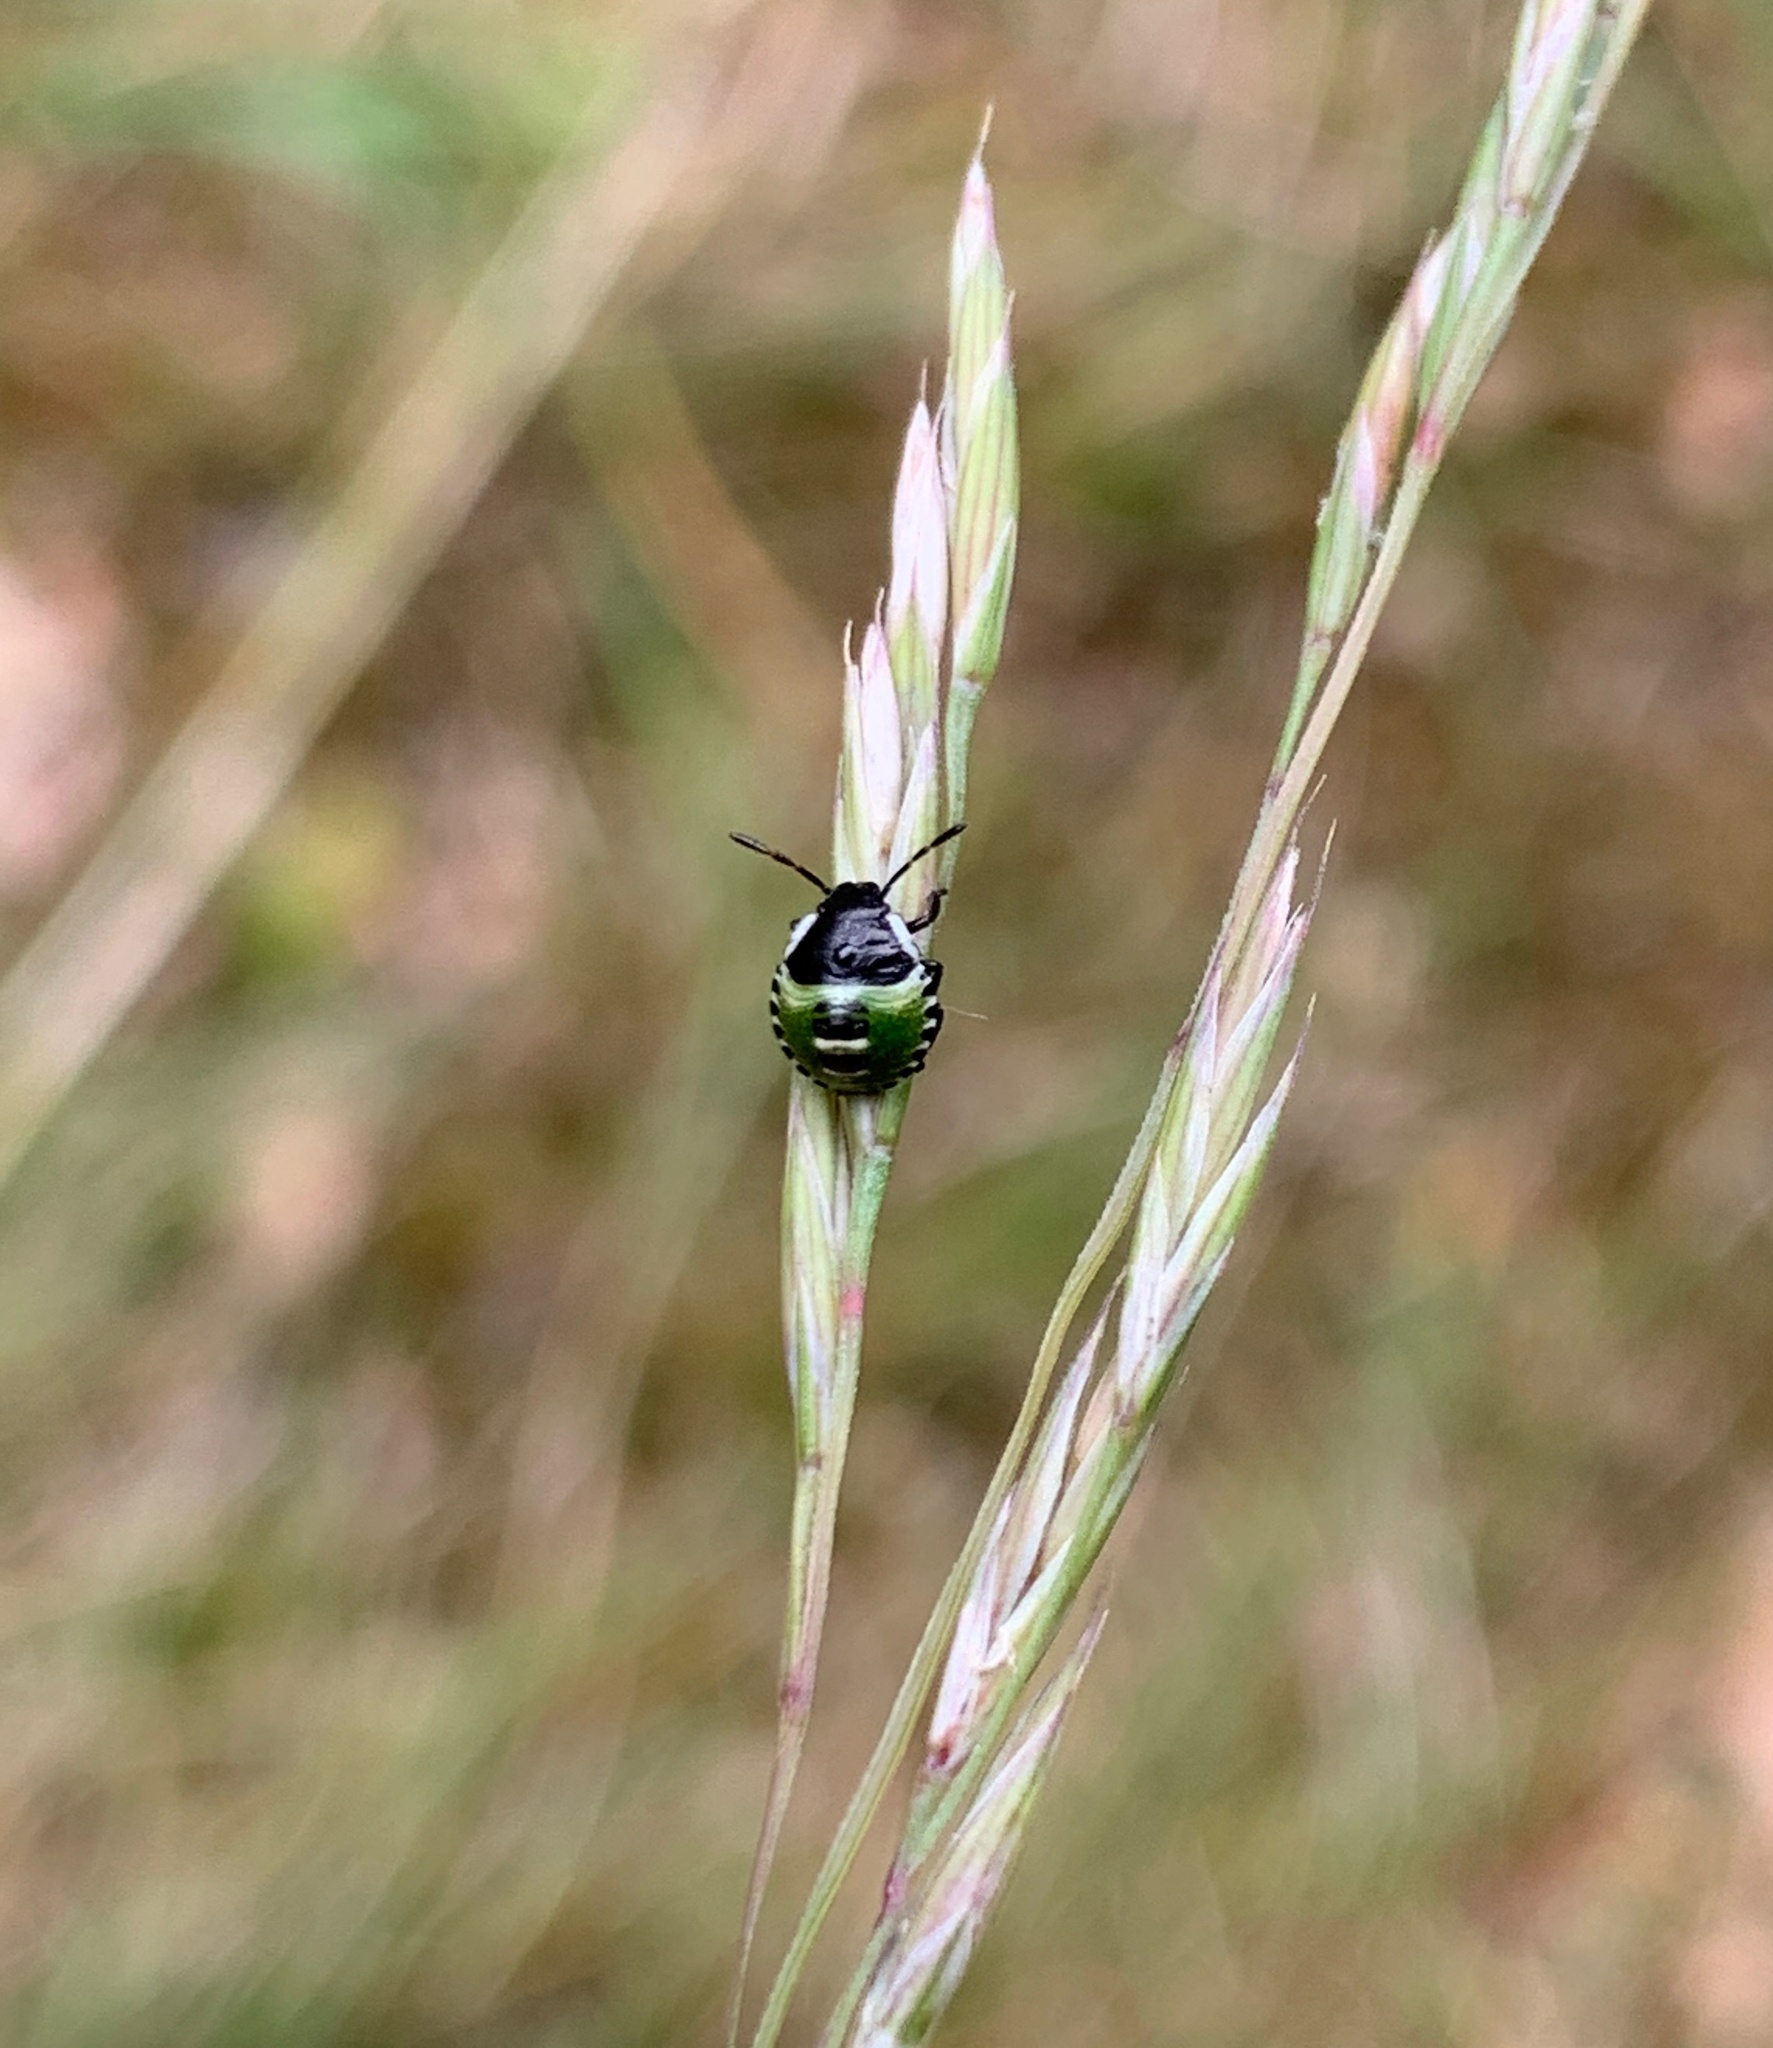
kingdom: Animalia
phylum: Arthropoda
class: Insecta
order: Hemiptera
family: Pentatomidae
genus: Palomena
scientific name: Palomena prasina
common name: Green shieldbug
